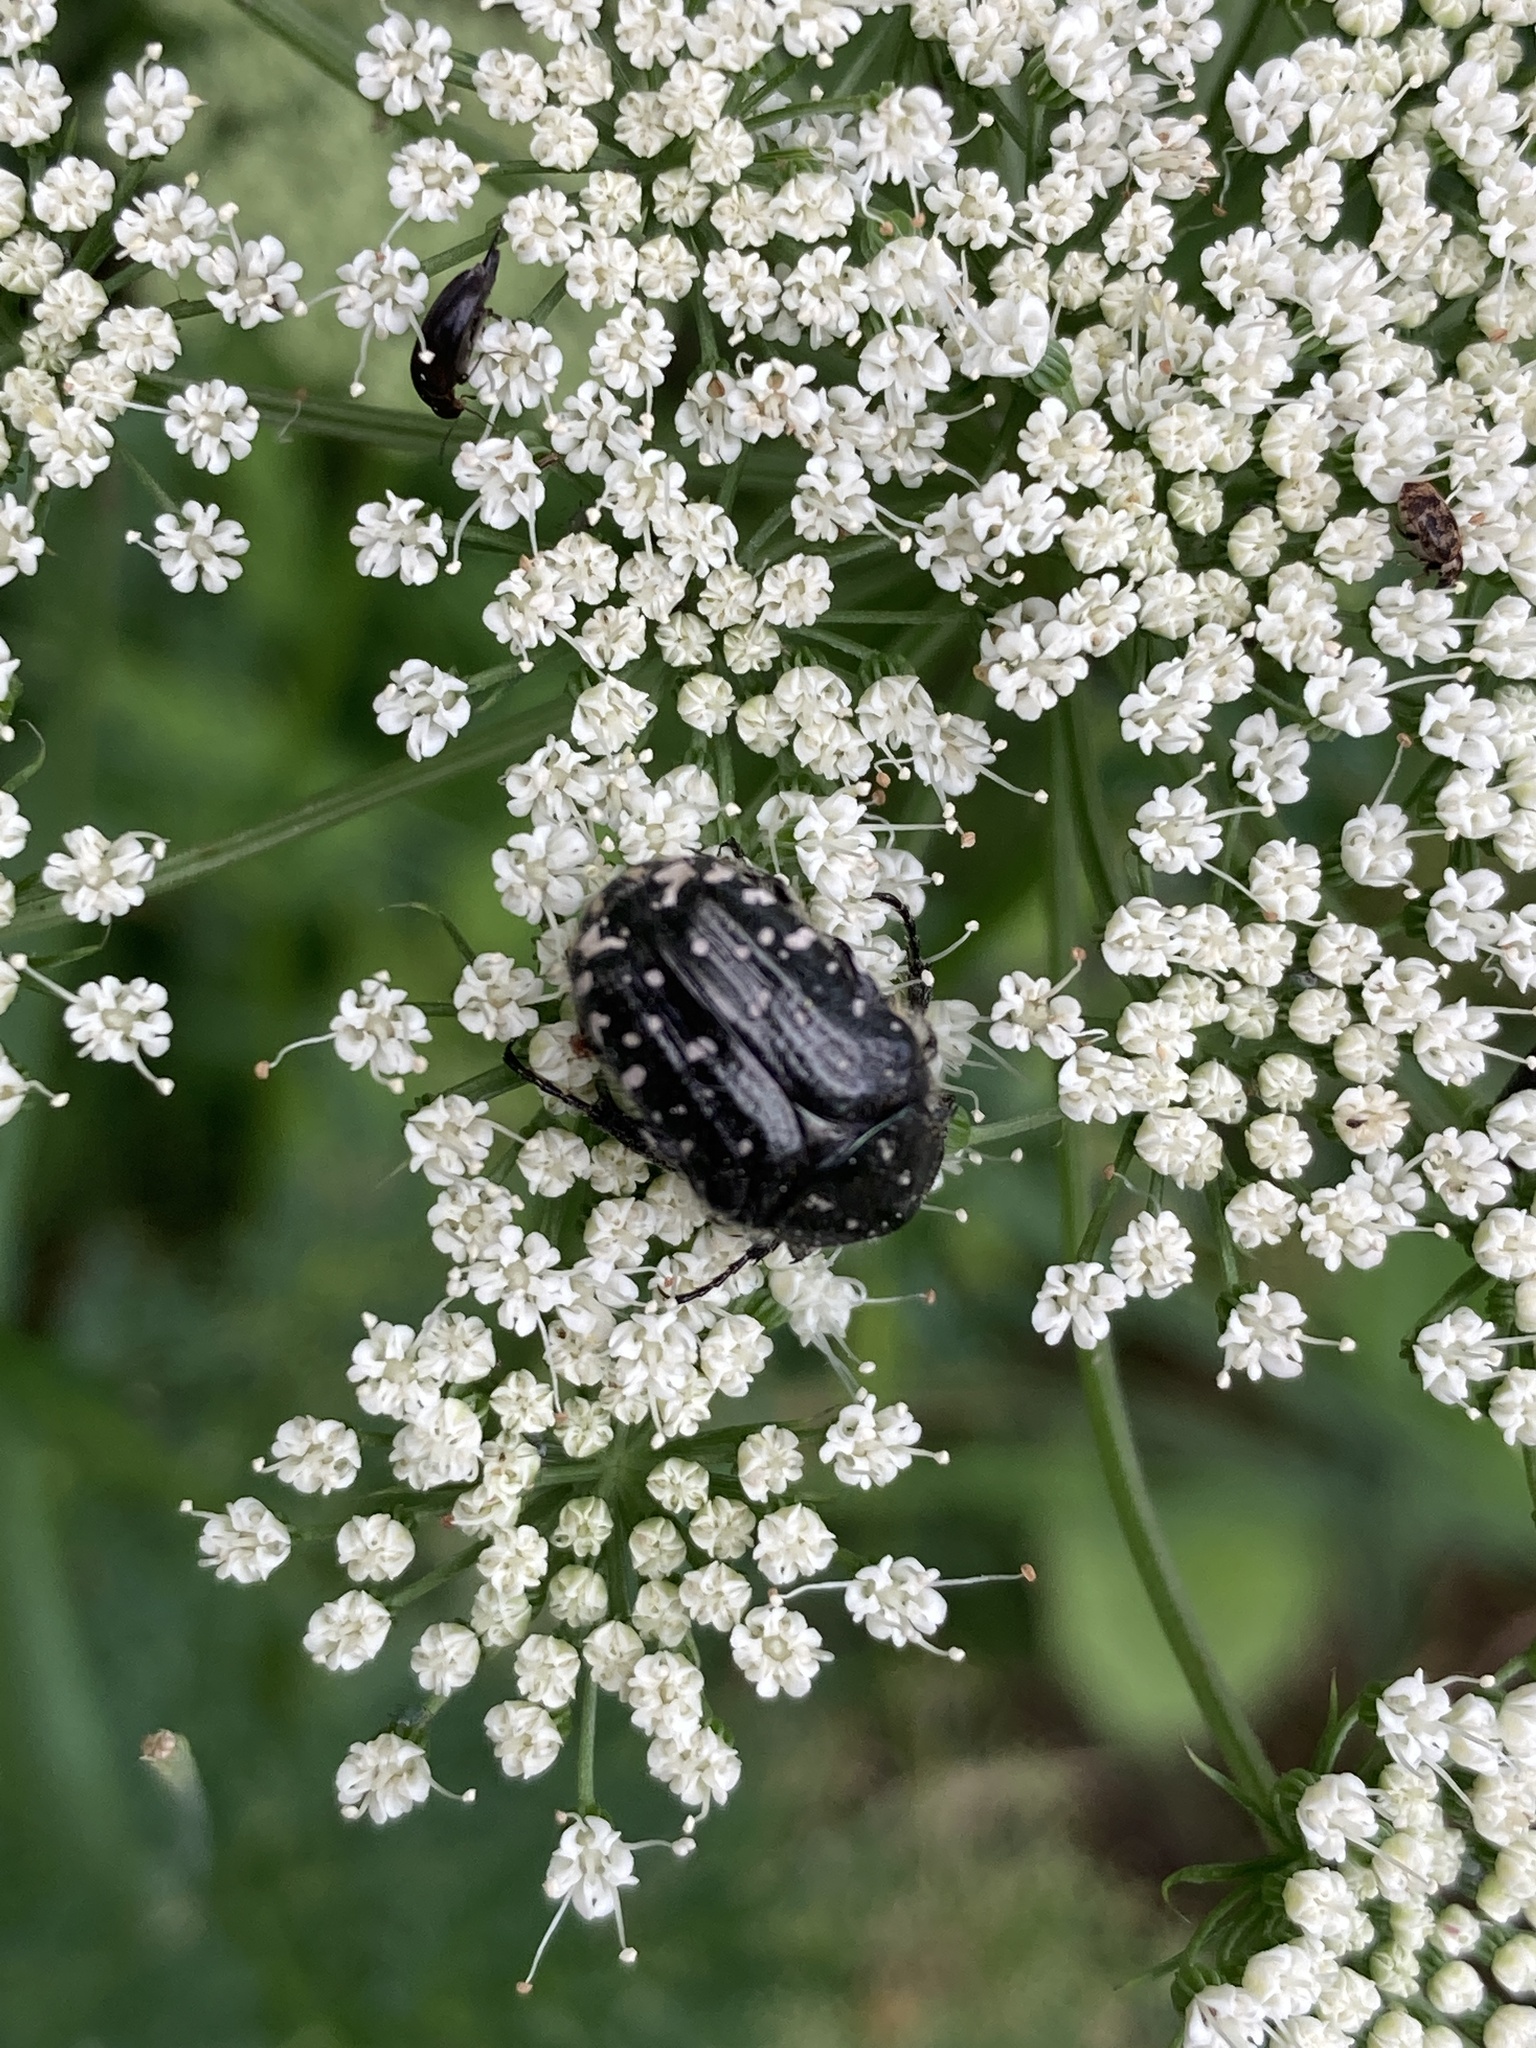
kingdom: Animalia
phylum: Arthropoda
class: Insecta
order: Coleoptera
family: Scarabaeidae
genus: Oxythyrea
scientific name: Oxythyrea funesta
